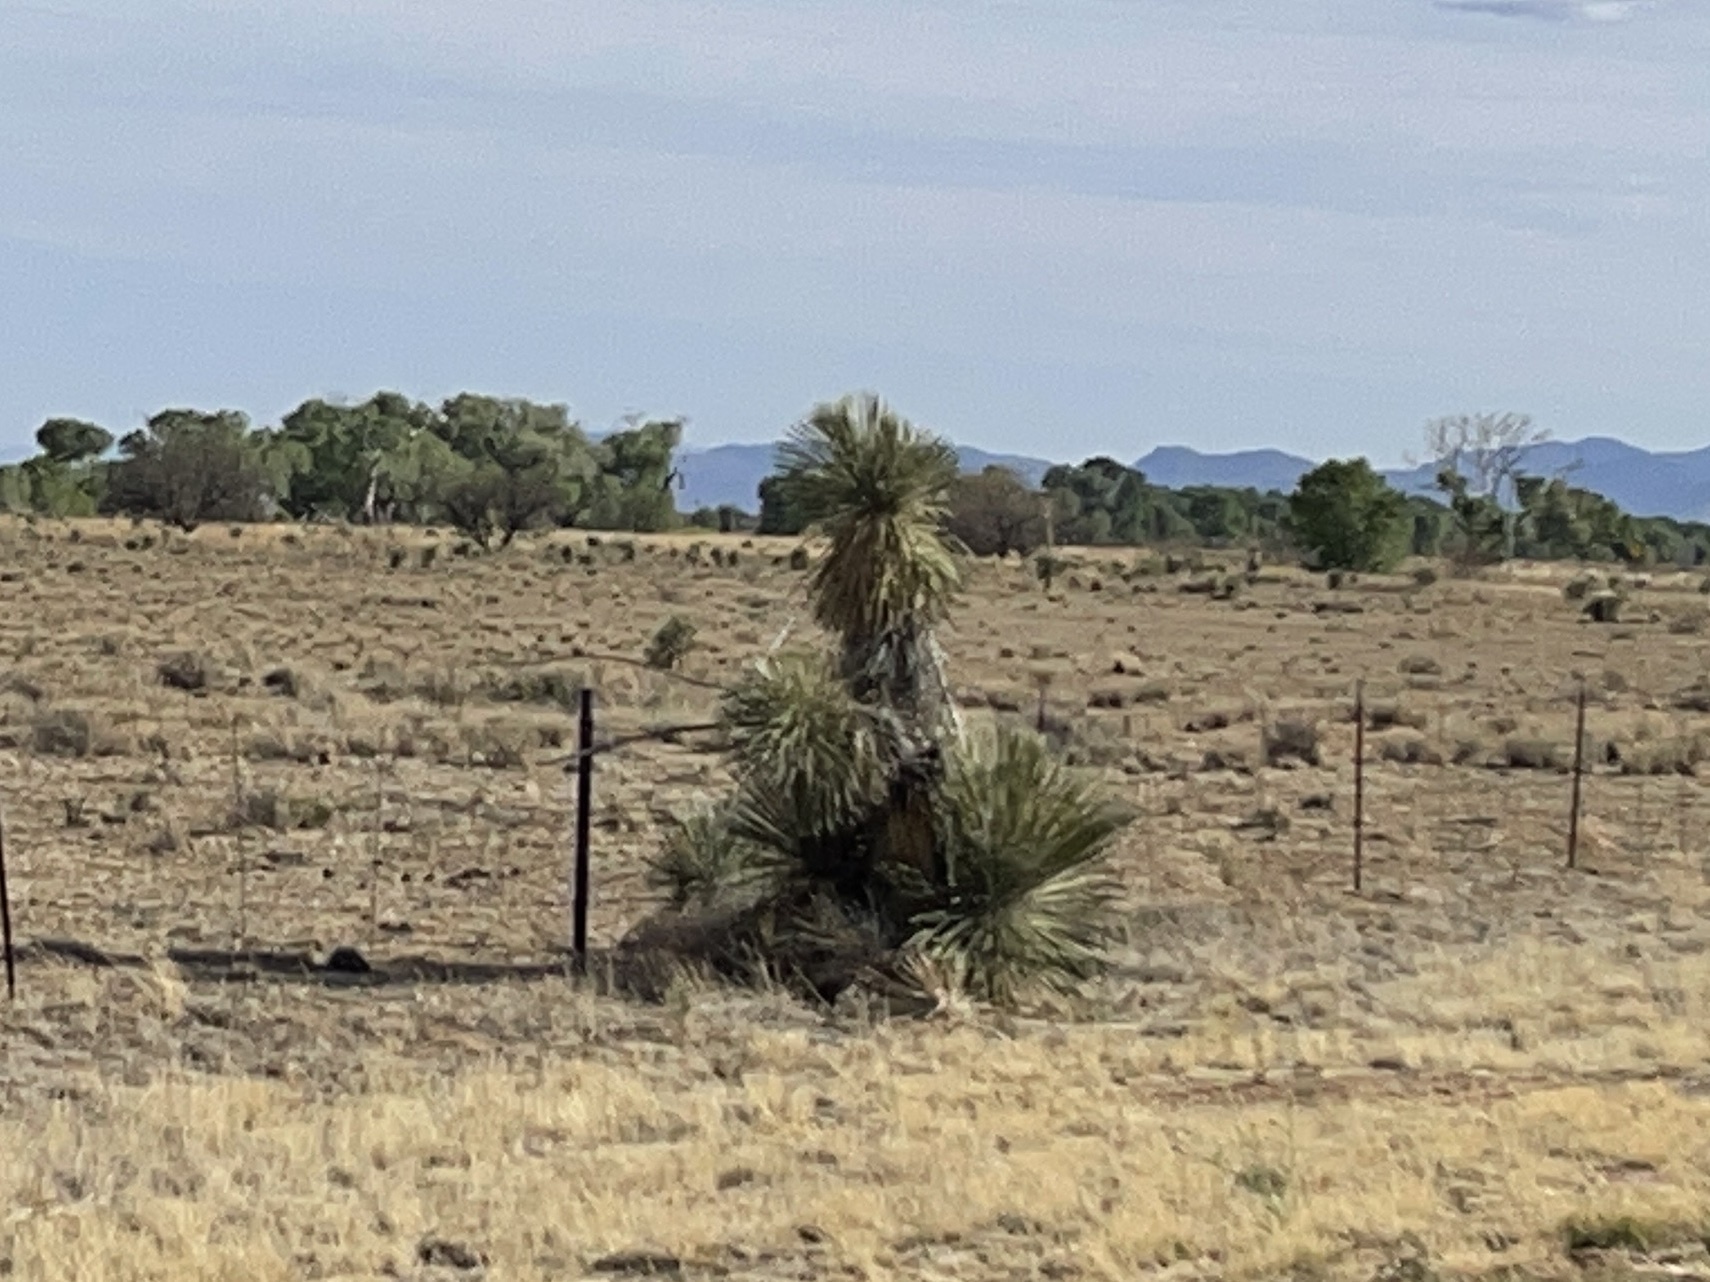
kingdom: Plantae
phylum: Tracheophyta
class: Liliopsida
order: Asparagales
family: Asparagaceae
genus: Yucca
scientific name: Yucca elata
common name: Palmella
